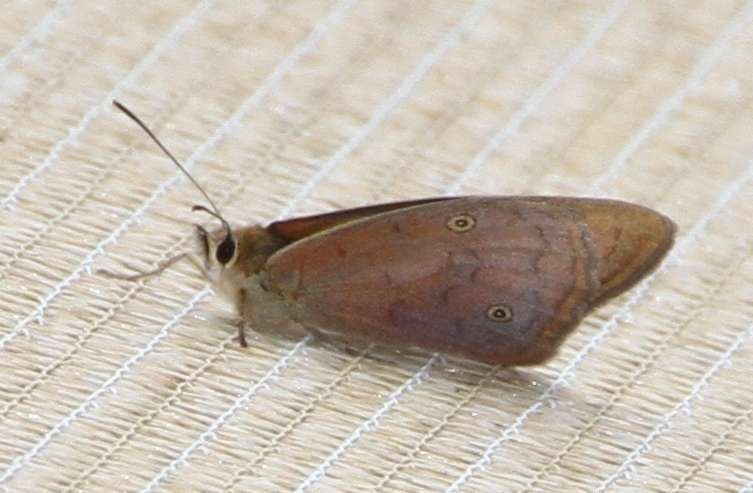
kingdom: Animalia
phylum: Arthropoda
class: Insecta
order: Lepidoptera
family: Nymphalidae
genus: Heteronympha
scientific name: Heteronympha penelope
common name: Shouldered brown
